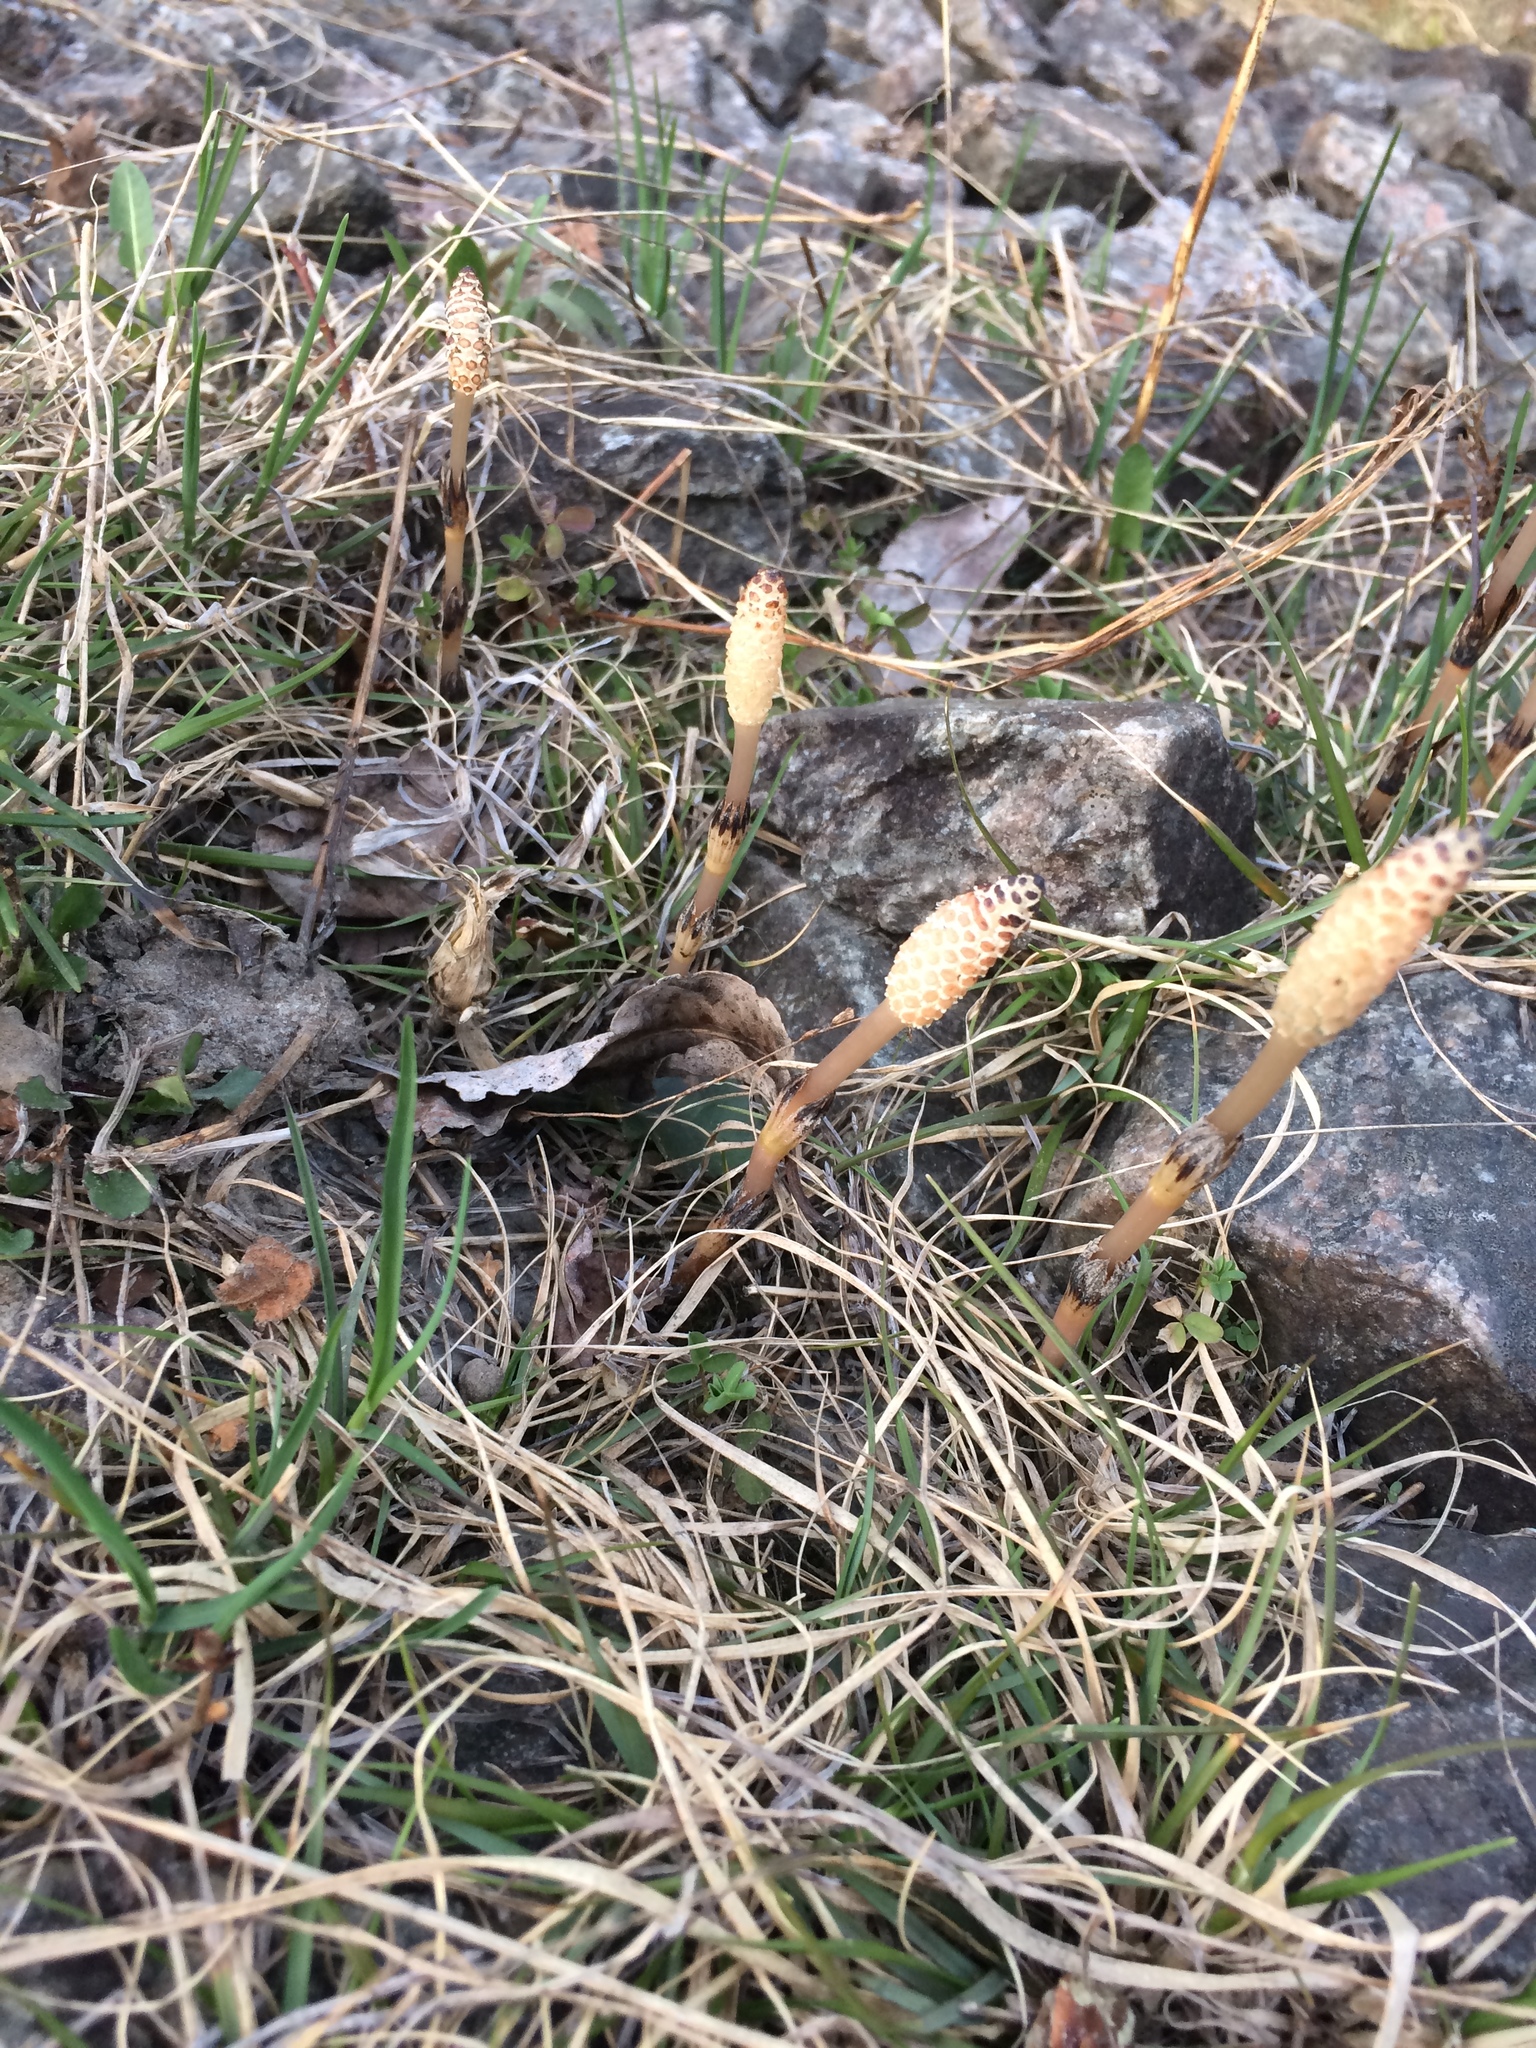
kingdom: Plantae
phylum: Tracheophyta
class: Polypodiopsida
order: Equisetales
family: Equisetaceae
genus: Equisetum
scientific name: Equisetum arvense
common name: Field horsetail
